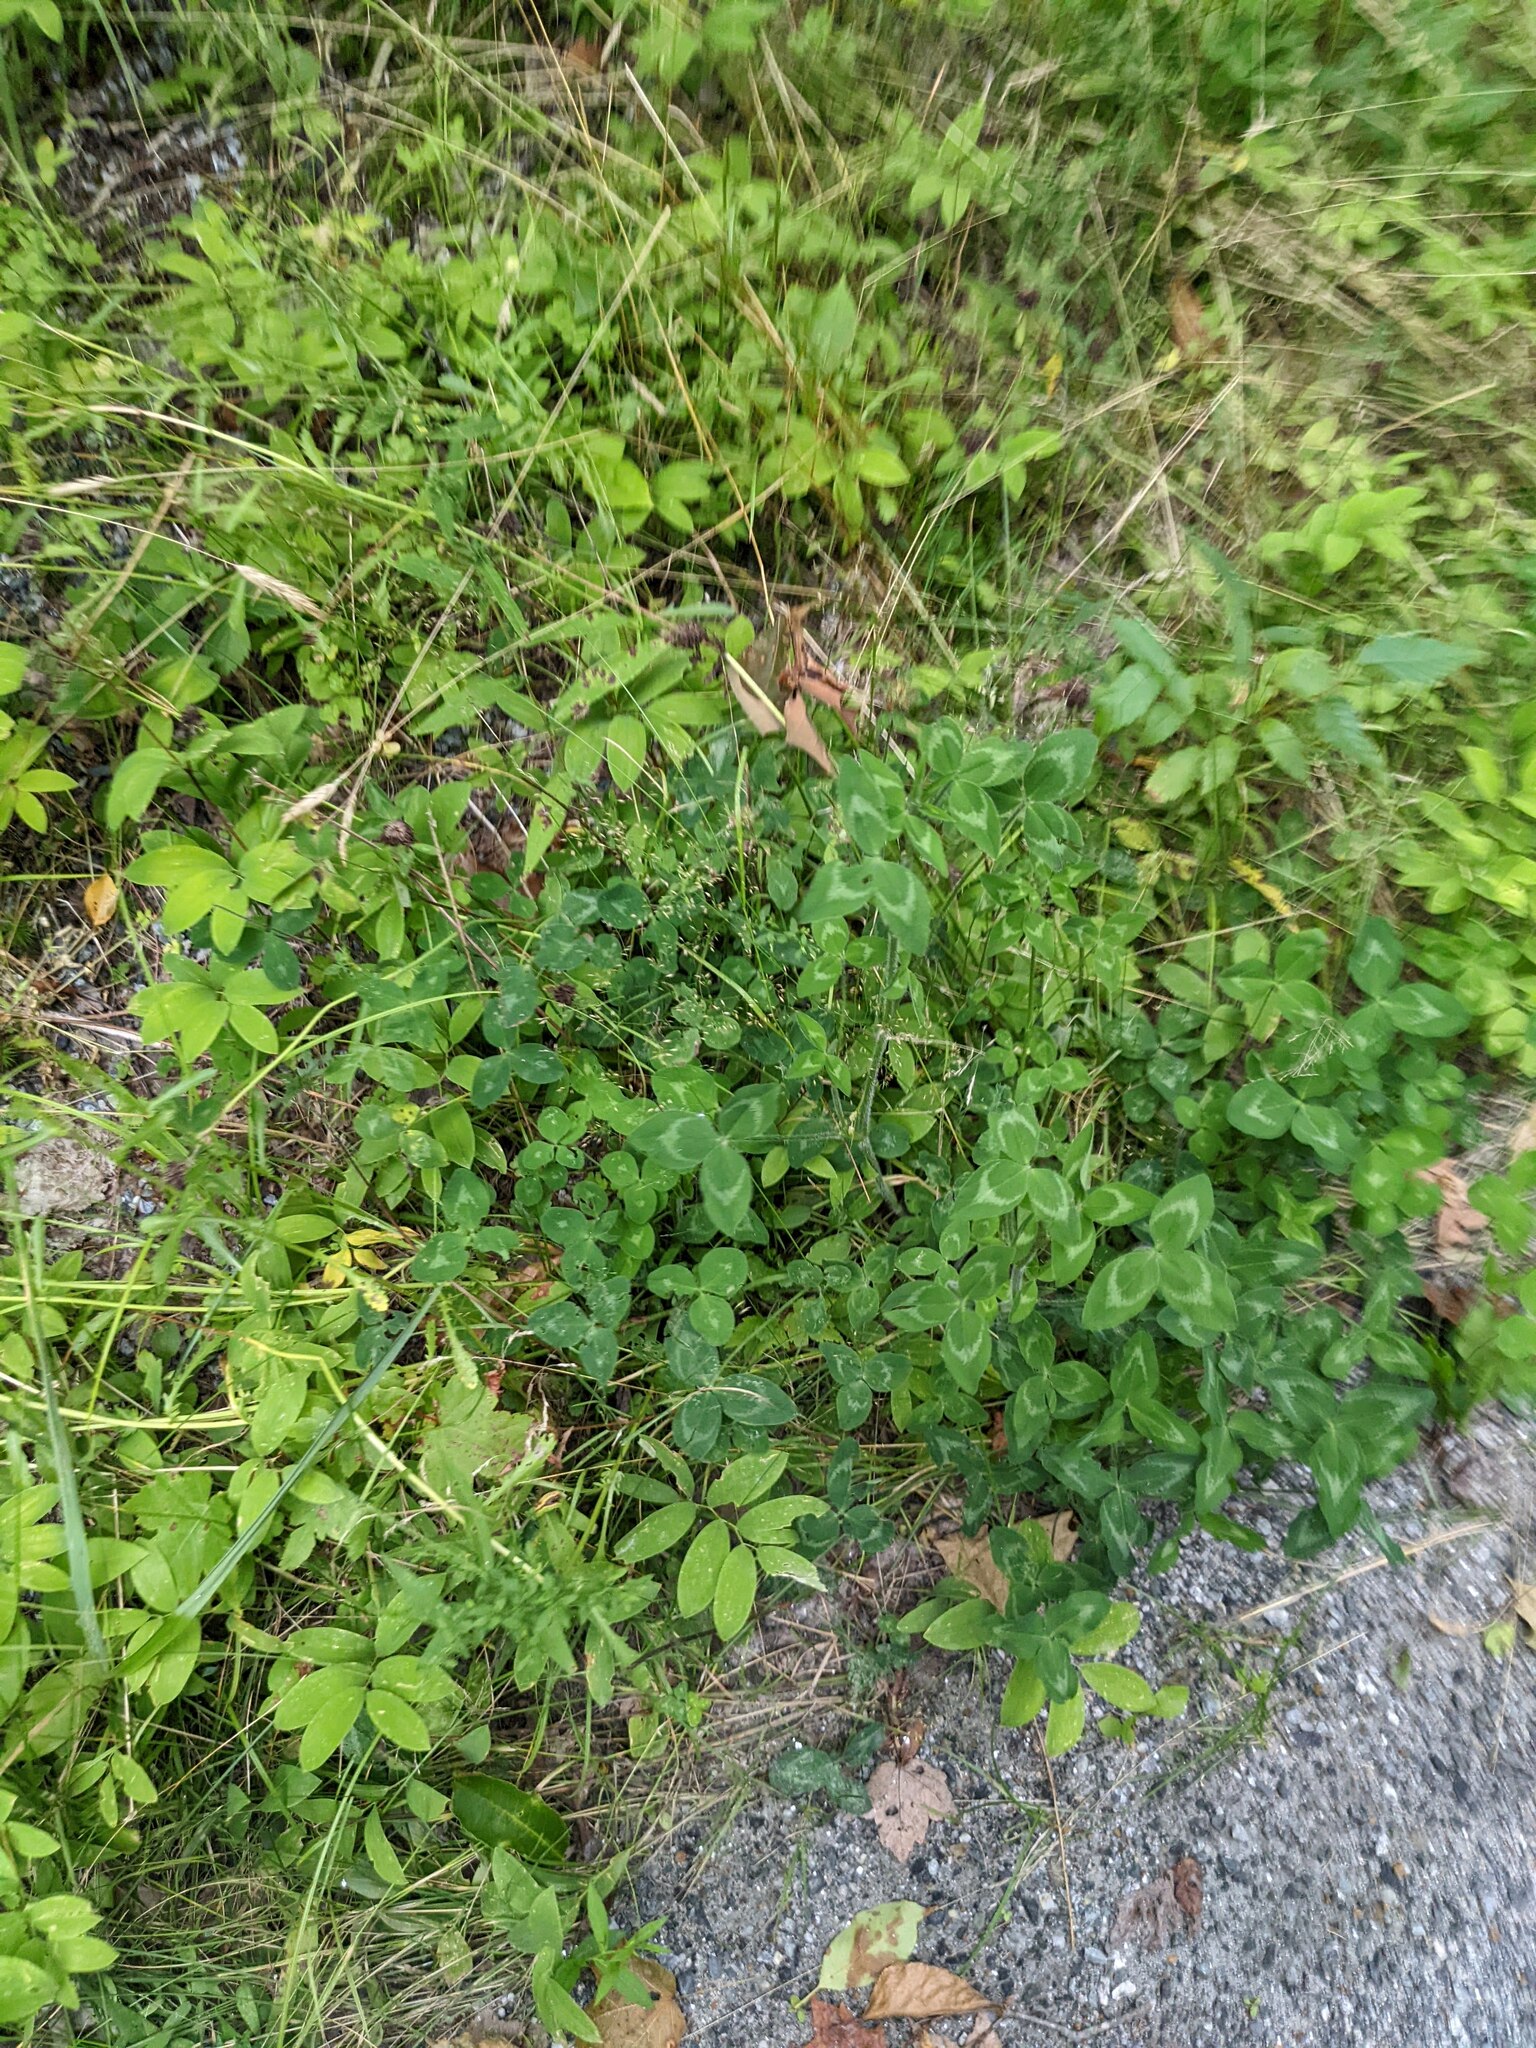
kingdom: Plantae
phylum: Tracheophyta
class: Magnoliopsida
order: Fabales
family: Fabaceae
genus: Trifolium
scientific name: Trifolium pratense
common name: Red clover
